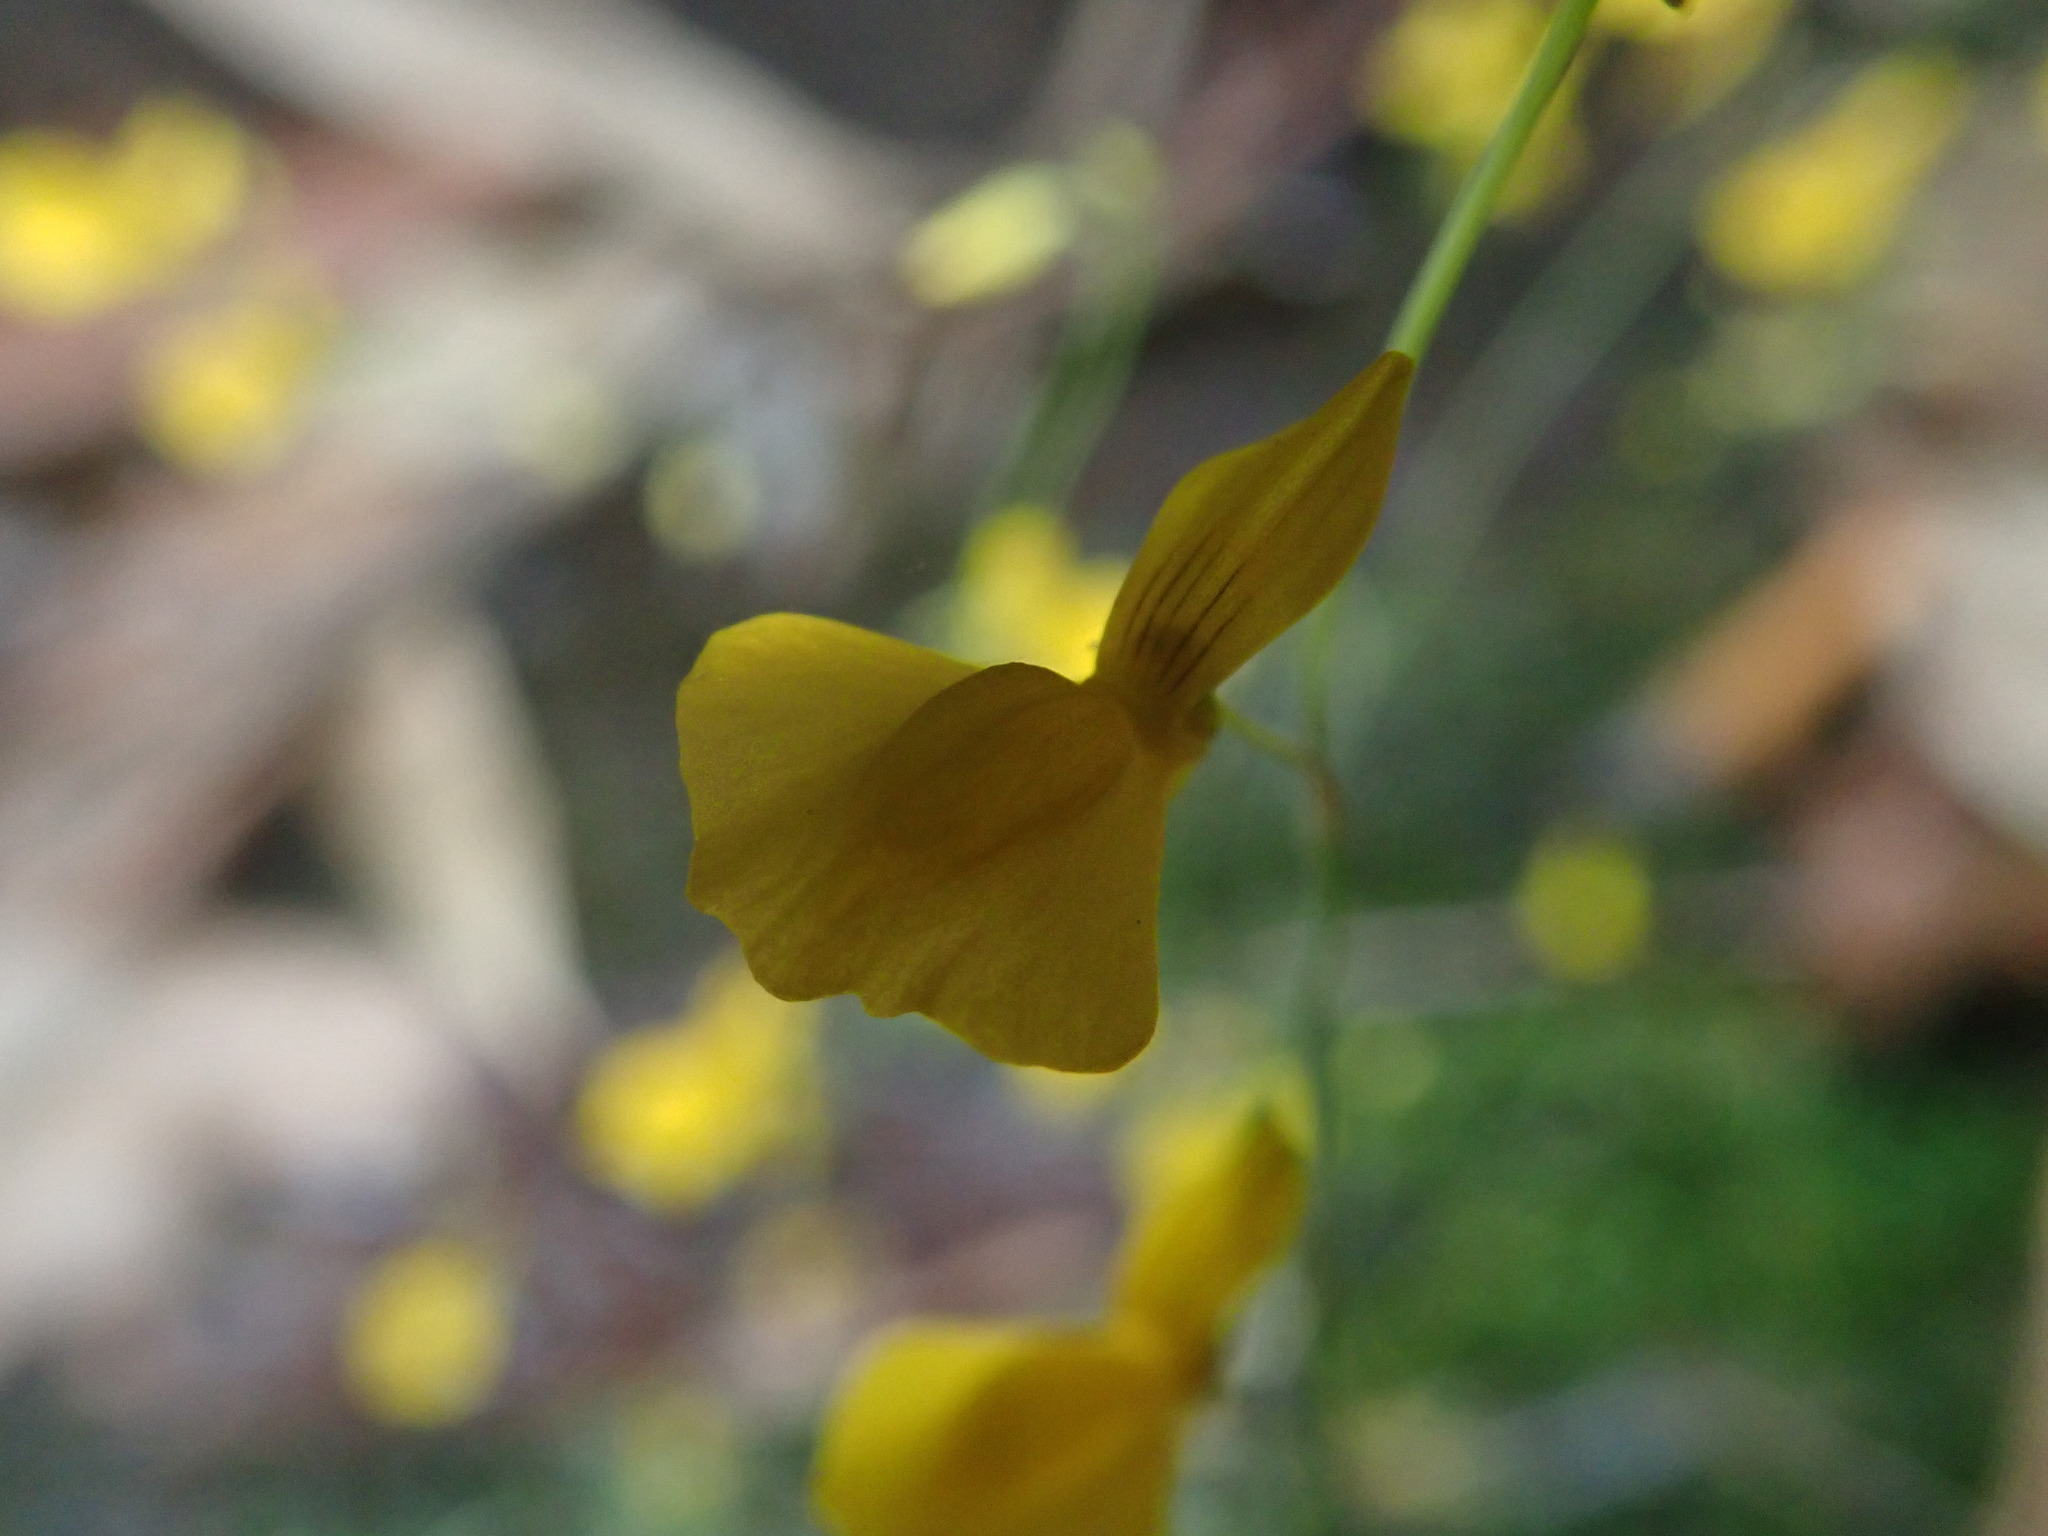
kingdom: Plantae
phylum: Tracheophyta
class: Magnoliopsida
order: Lamiales
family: Lentibulariaceae
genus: Utricularia
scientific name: Utricularia odorata
